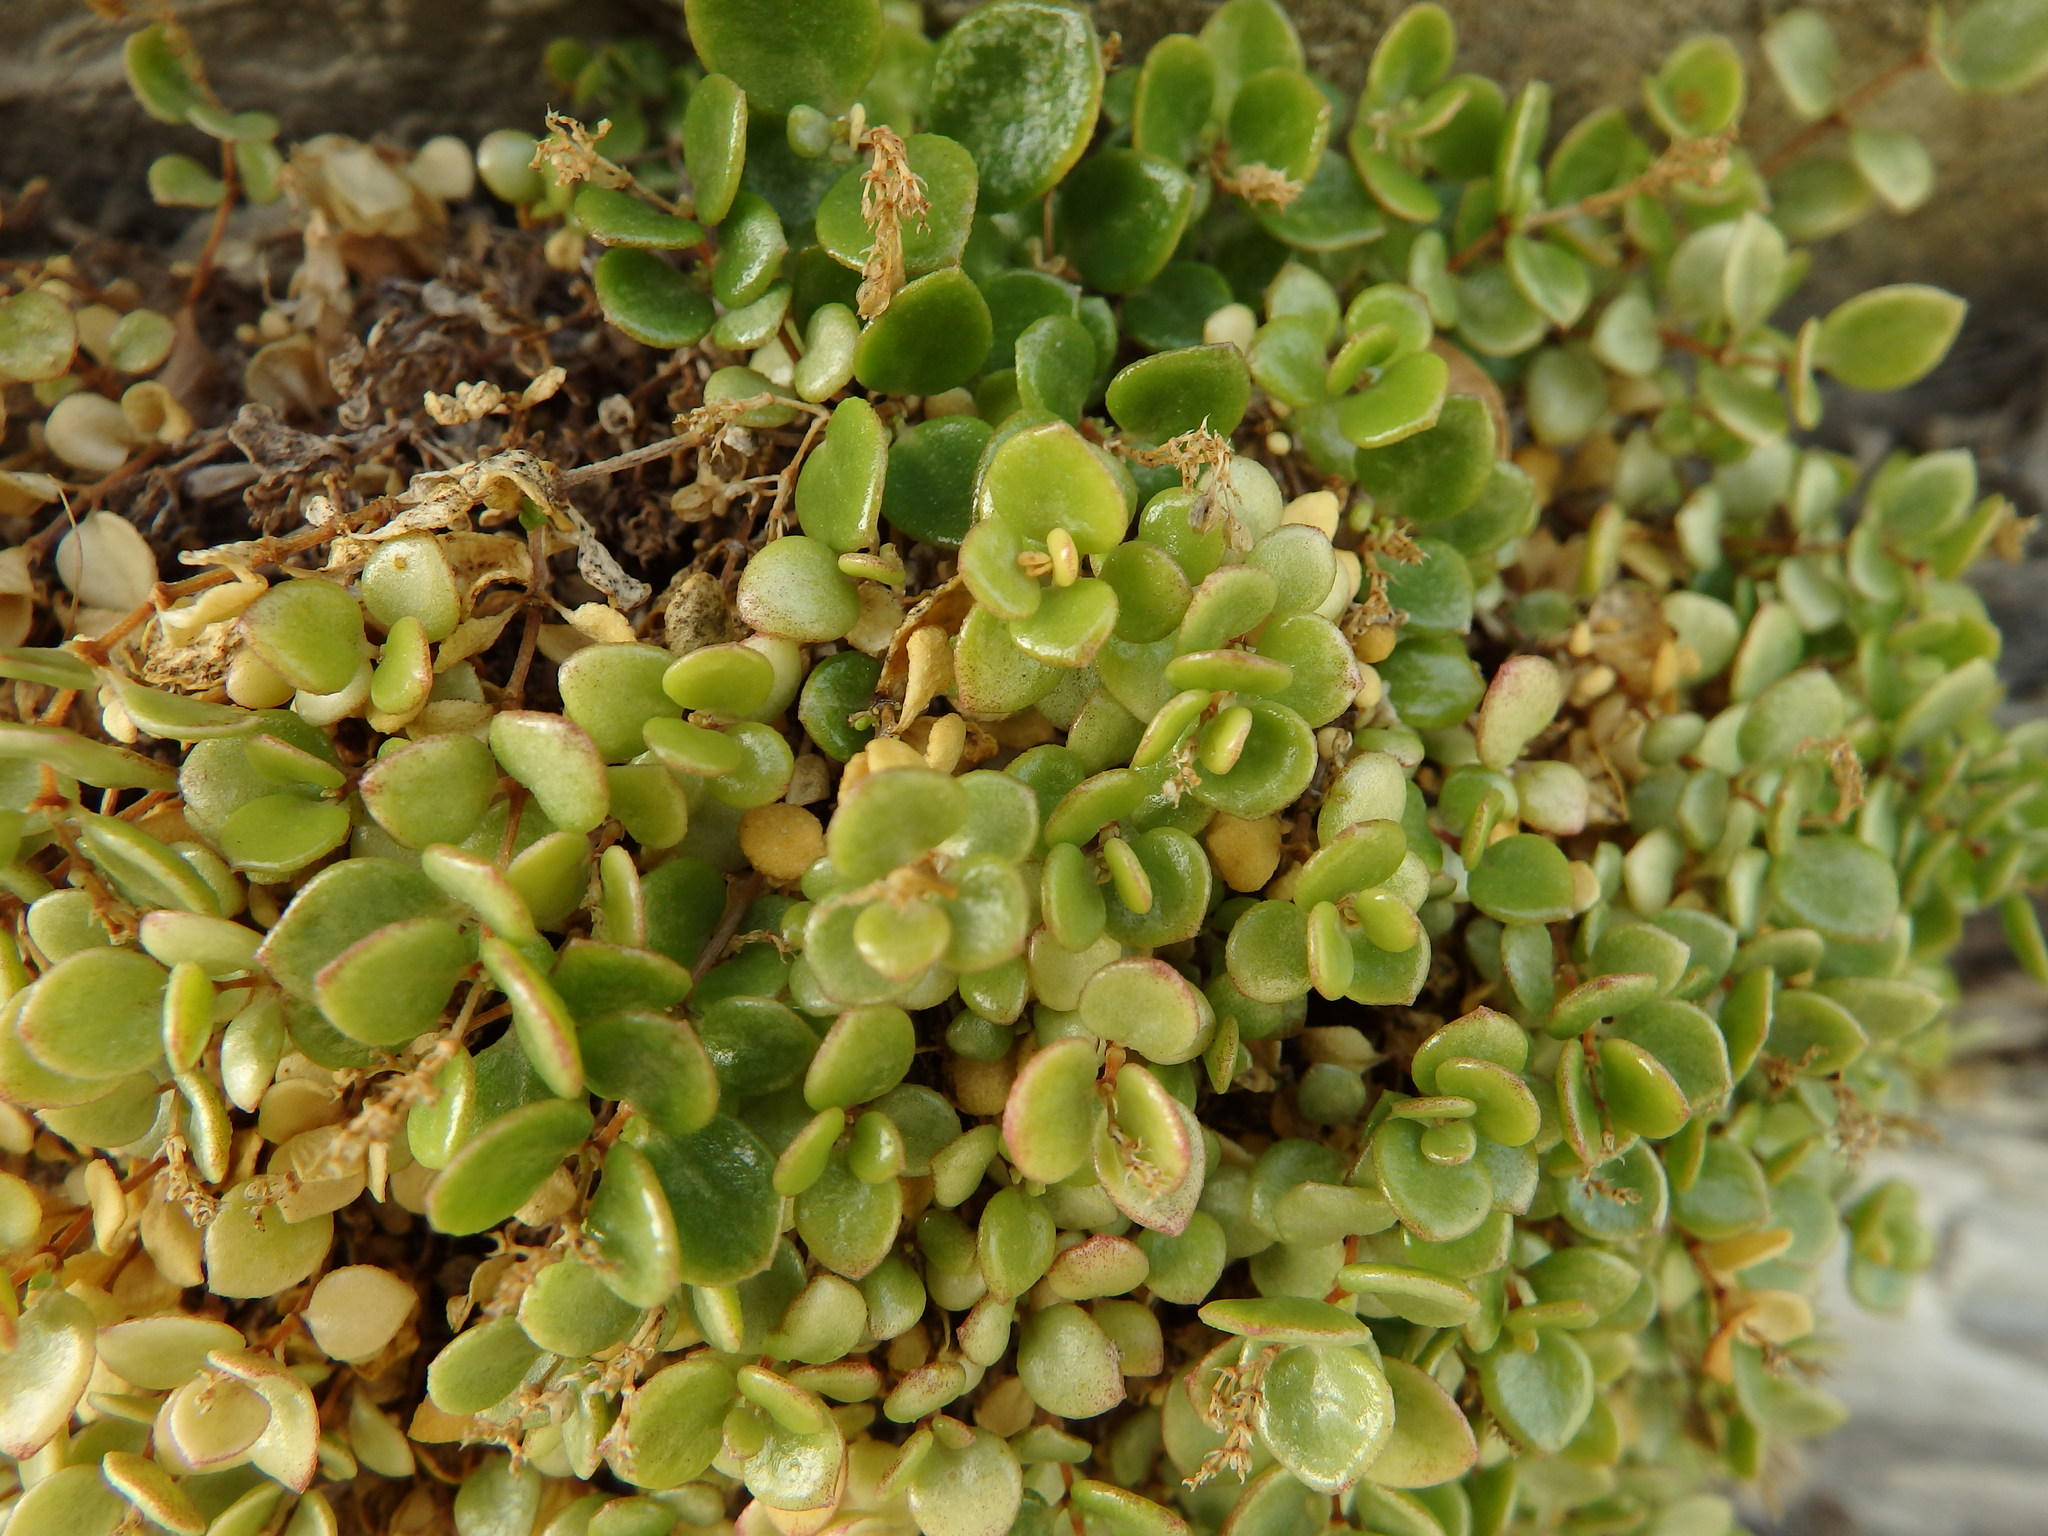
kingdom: Plantae
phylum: Tracheophyta
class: Magnoliopsida
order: Caryophyllales
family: Caryophyllaceae
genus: Polycarpon
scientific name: Polycarpon polycarpoides
